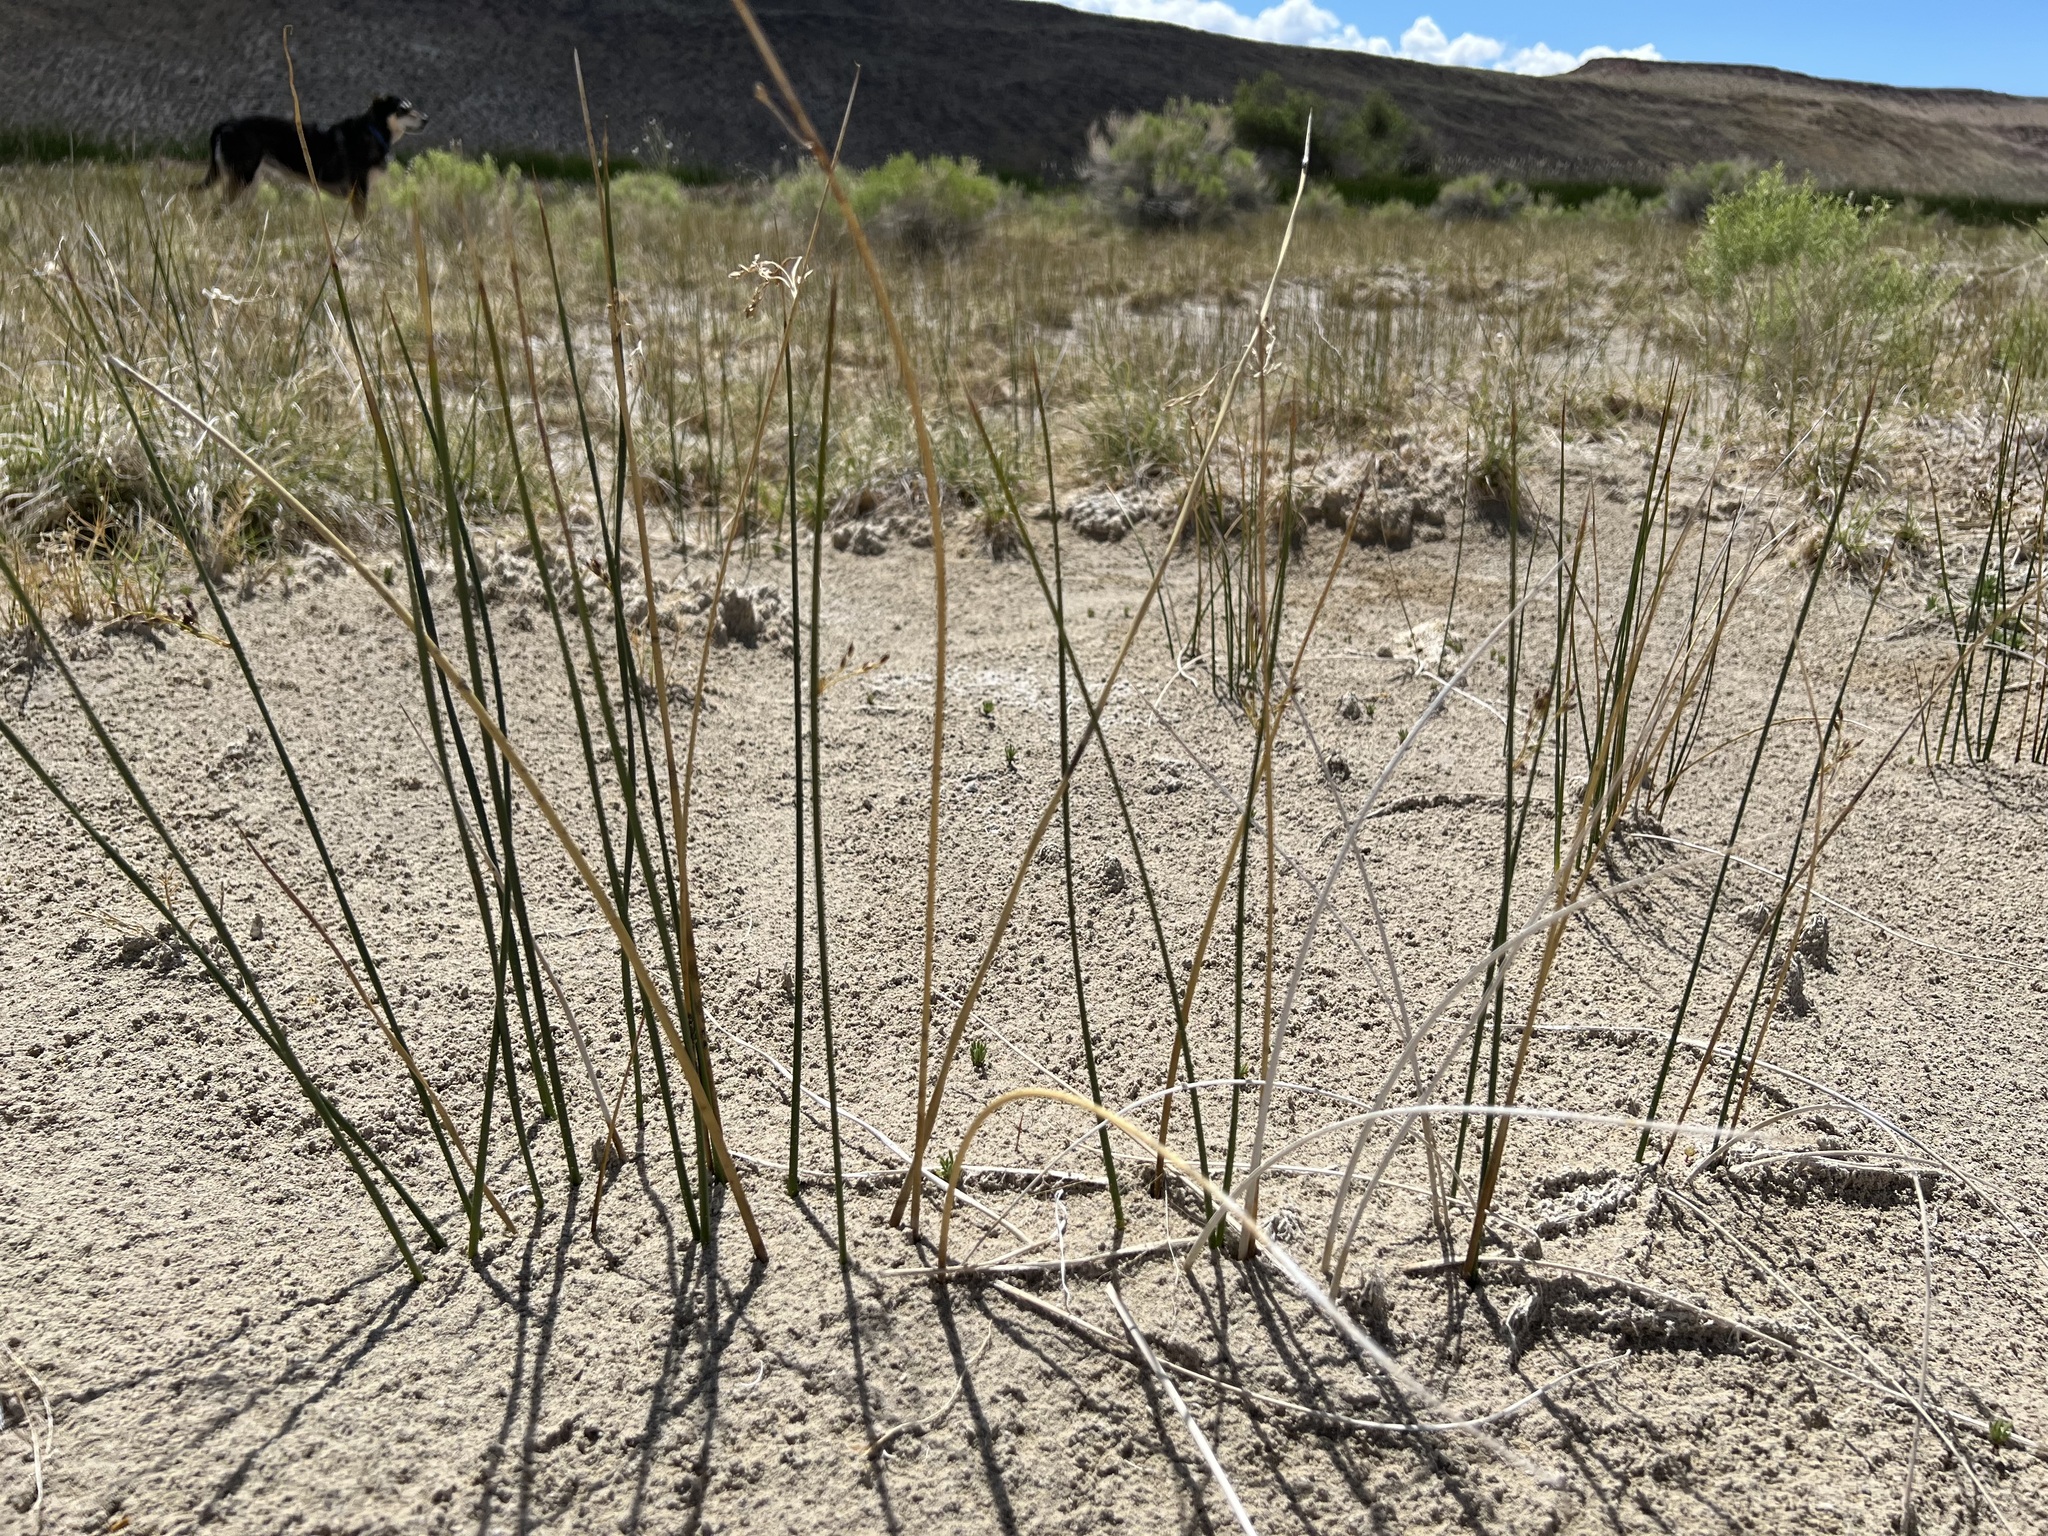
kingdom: Plantae
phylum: Tracheophyta
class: Liliopsida
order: Poales
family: Juncaceae
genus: Juncus
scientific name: Juncus balticus
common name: Baltic rush
